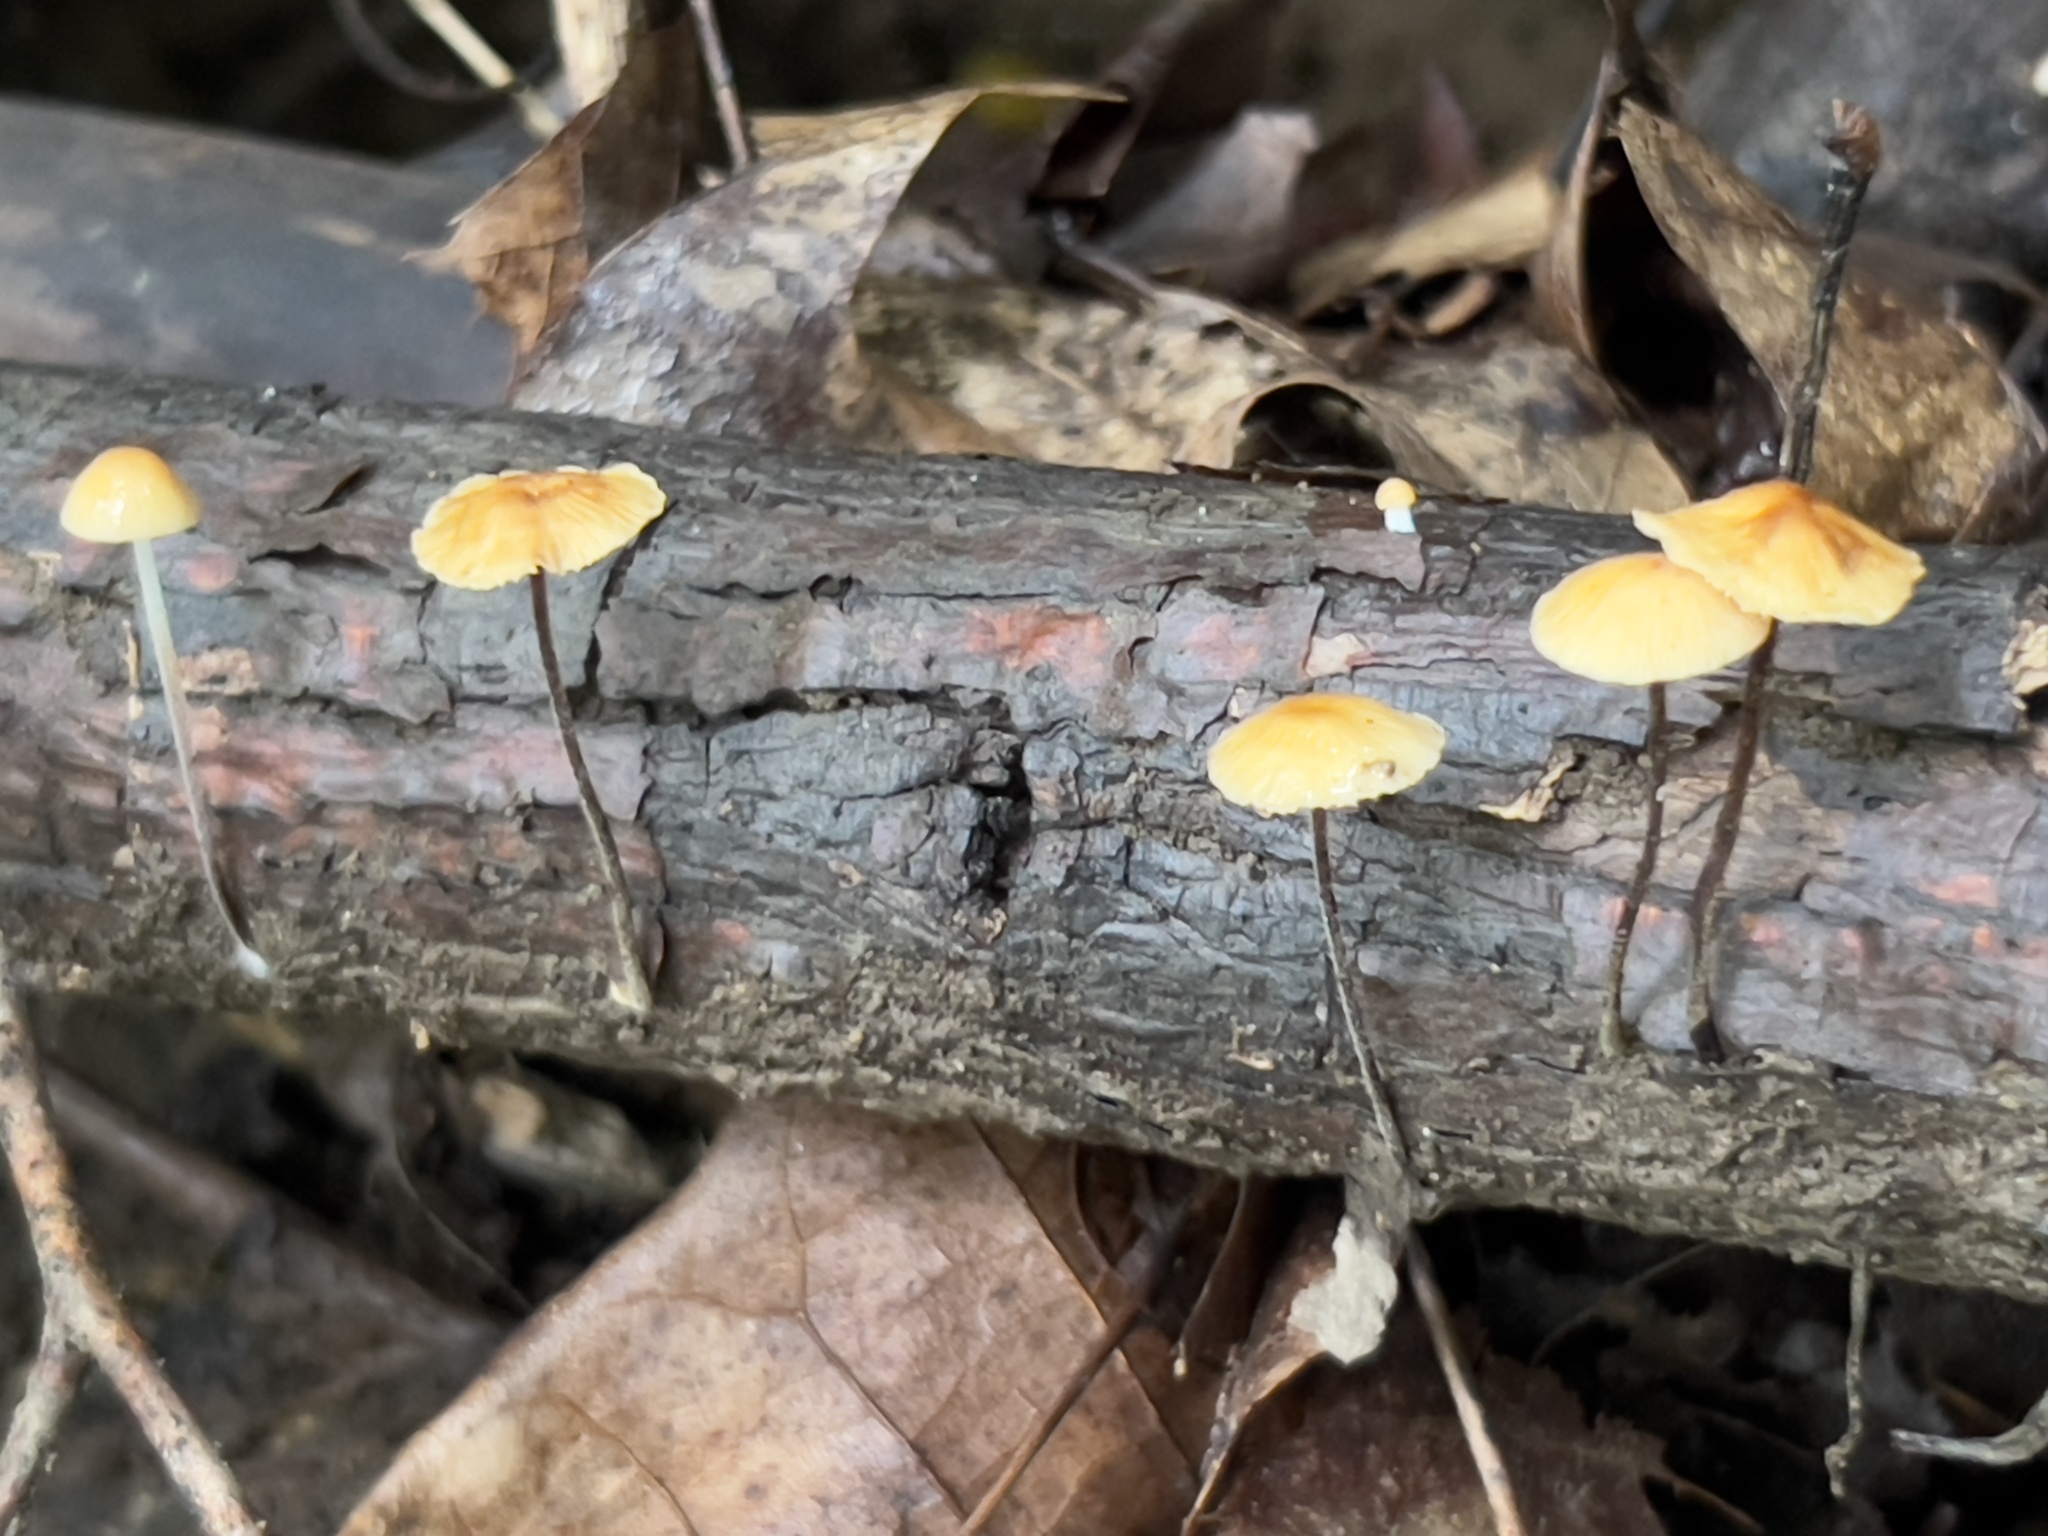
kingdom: Fungi
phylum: Basidiomycota
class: Agaricomycetes
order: Agaricales
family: Physalacriaceae
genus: Rhizomarasmius
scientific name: Rhizomarasmius pyrrhocephalus
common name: Hairy long stem marasmius
